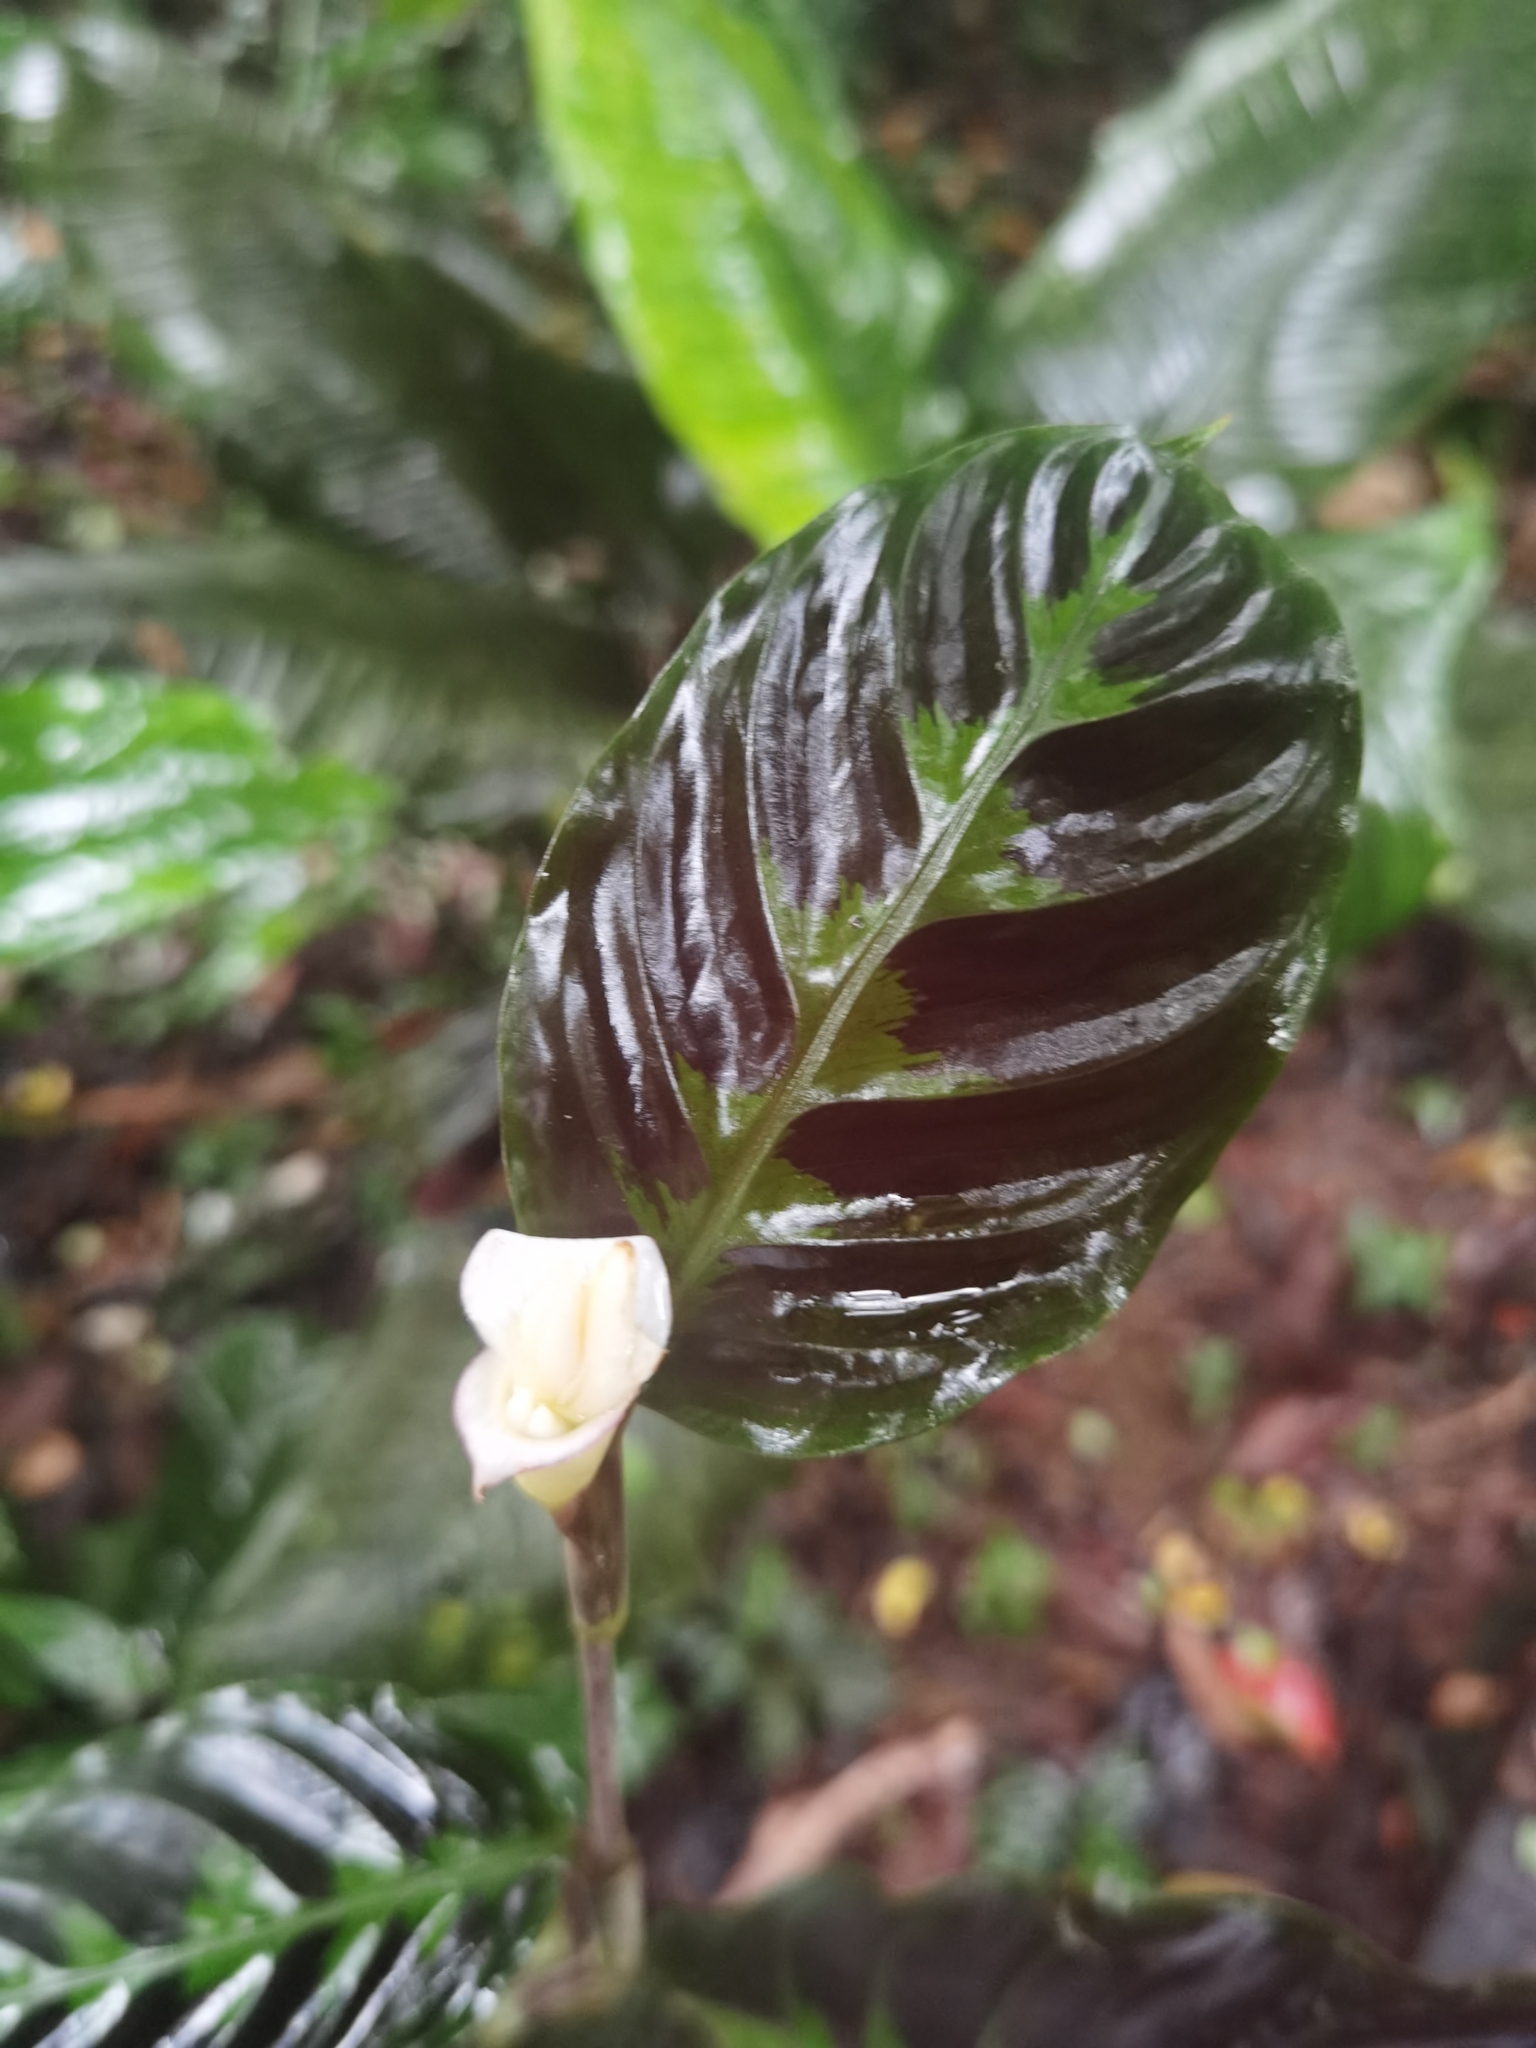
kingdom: Plantae
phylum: Tracheophyta
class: Liliopsida
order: Zingiberales
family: Marantaceae
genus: Goeppertia
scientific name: Goeppertia warszewiczii
